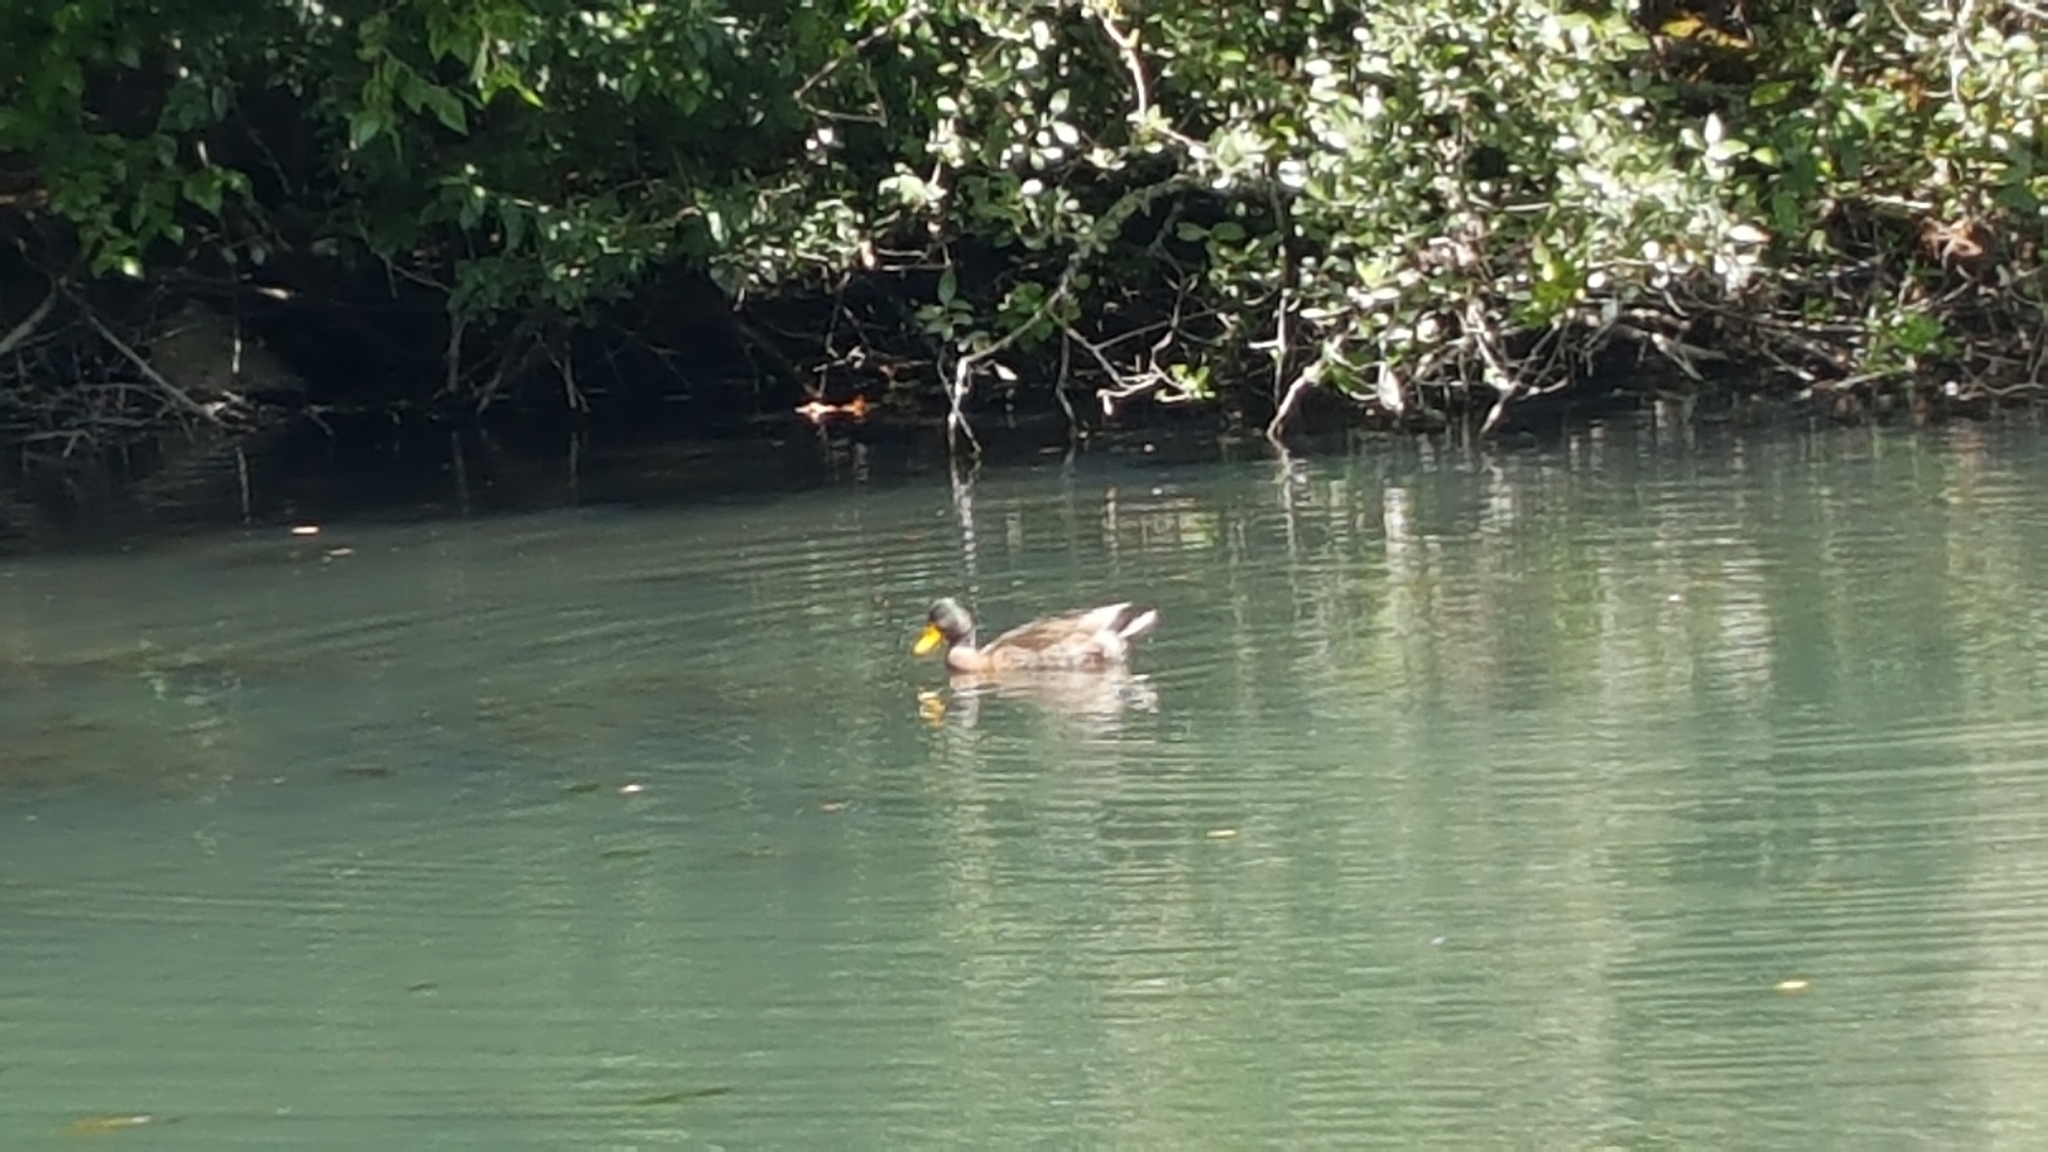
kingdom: Animalia
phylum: Chordata
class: Aves
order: Anseriformes
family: Anatidae
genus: Anas
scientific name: Anas platyrhynchos
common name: Mallard
